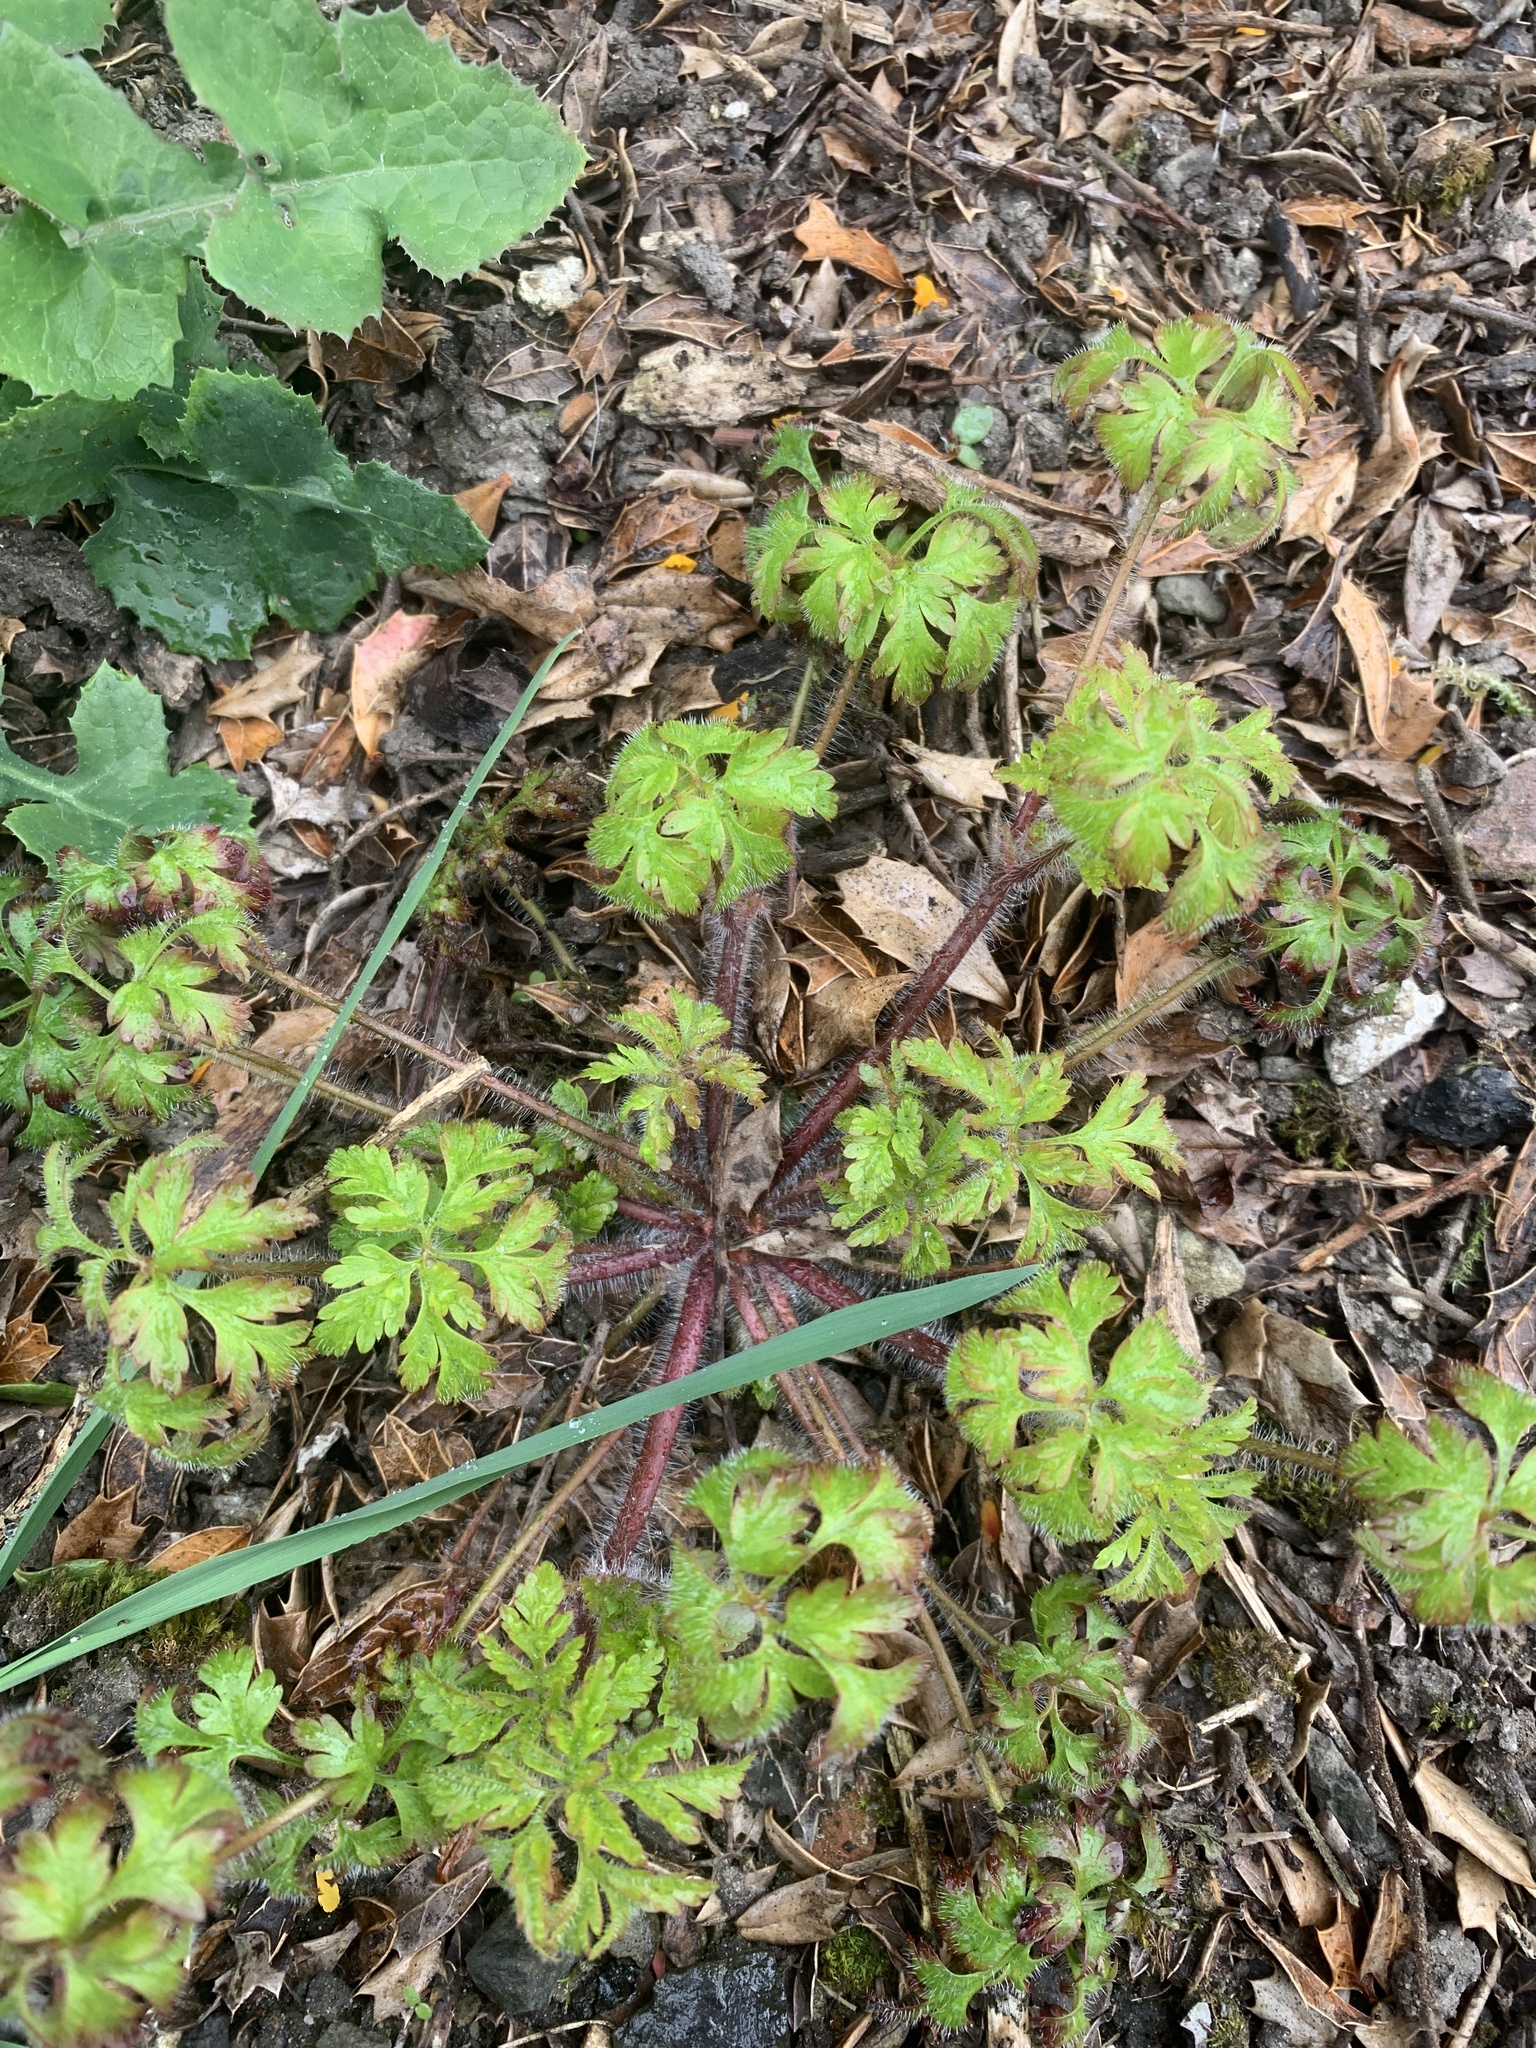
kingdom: Plantae
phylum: Tracheophyta
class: Magnoliopsida
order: Geraniales
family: Geraniaceae
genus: Geranium
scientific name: Geranium robertianum
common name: Herb-robert
